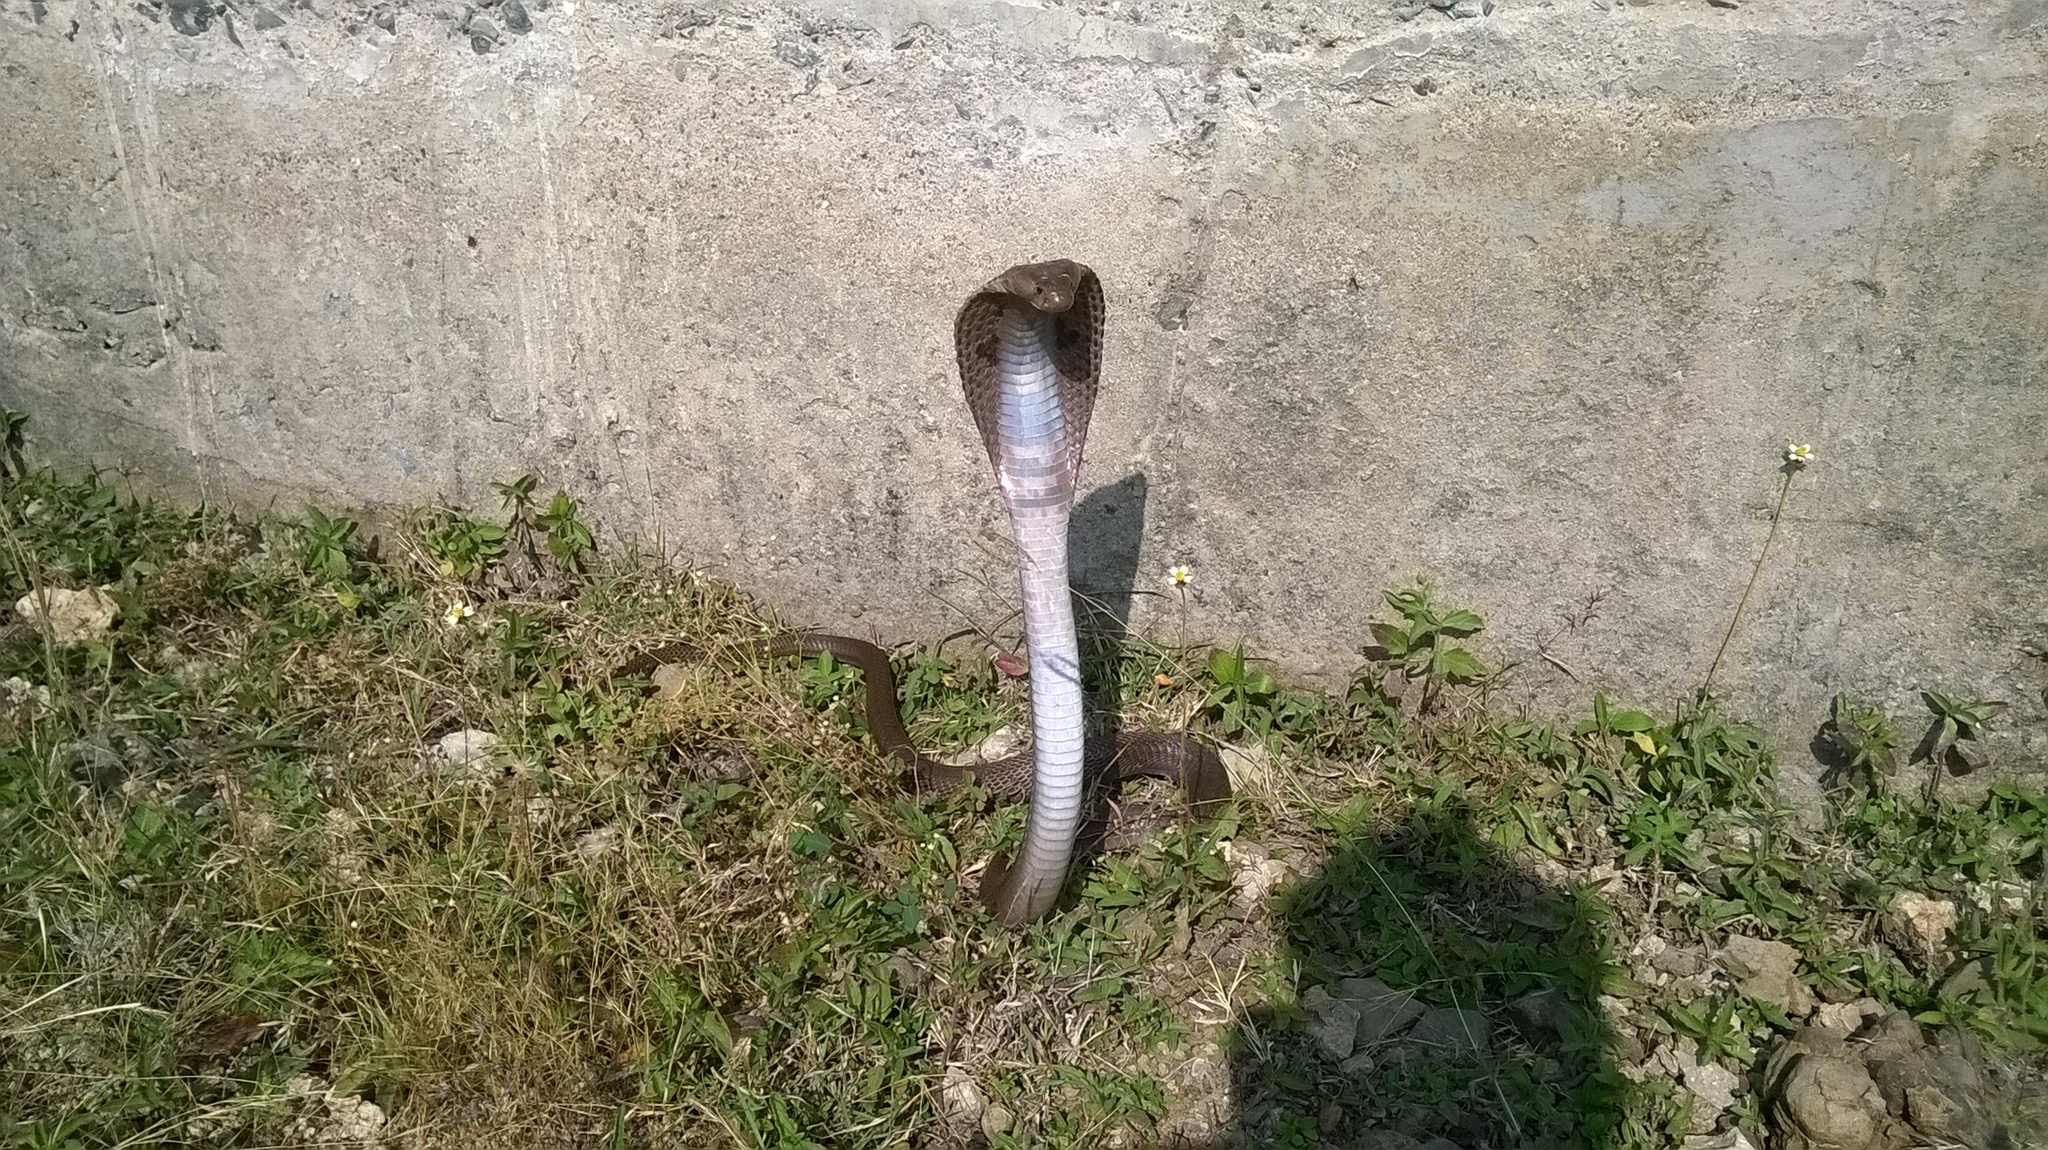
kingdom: Animalia
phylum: Chordata
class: Squamata
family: Elapidae
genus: Naja
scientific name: Naja naja
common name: Indian cobra
